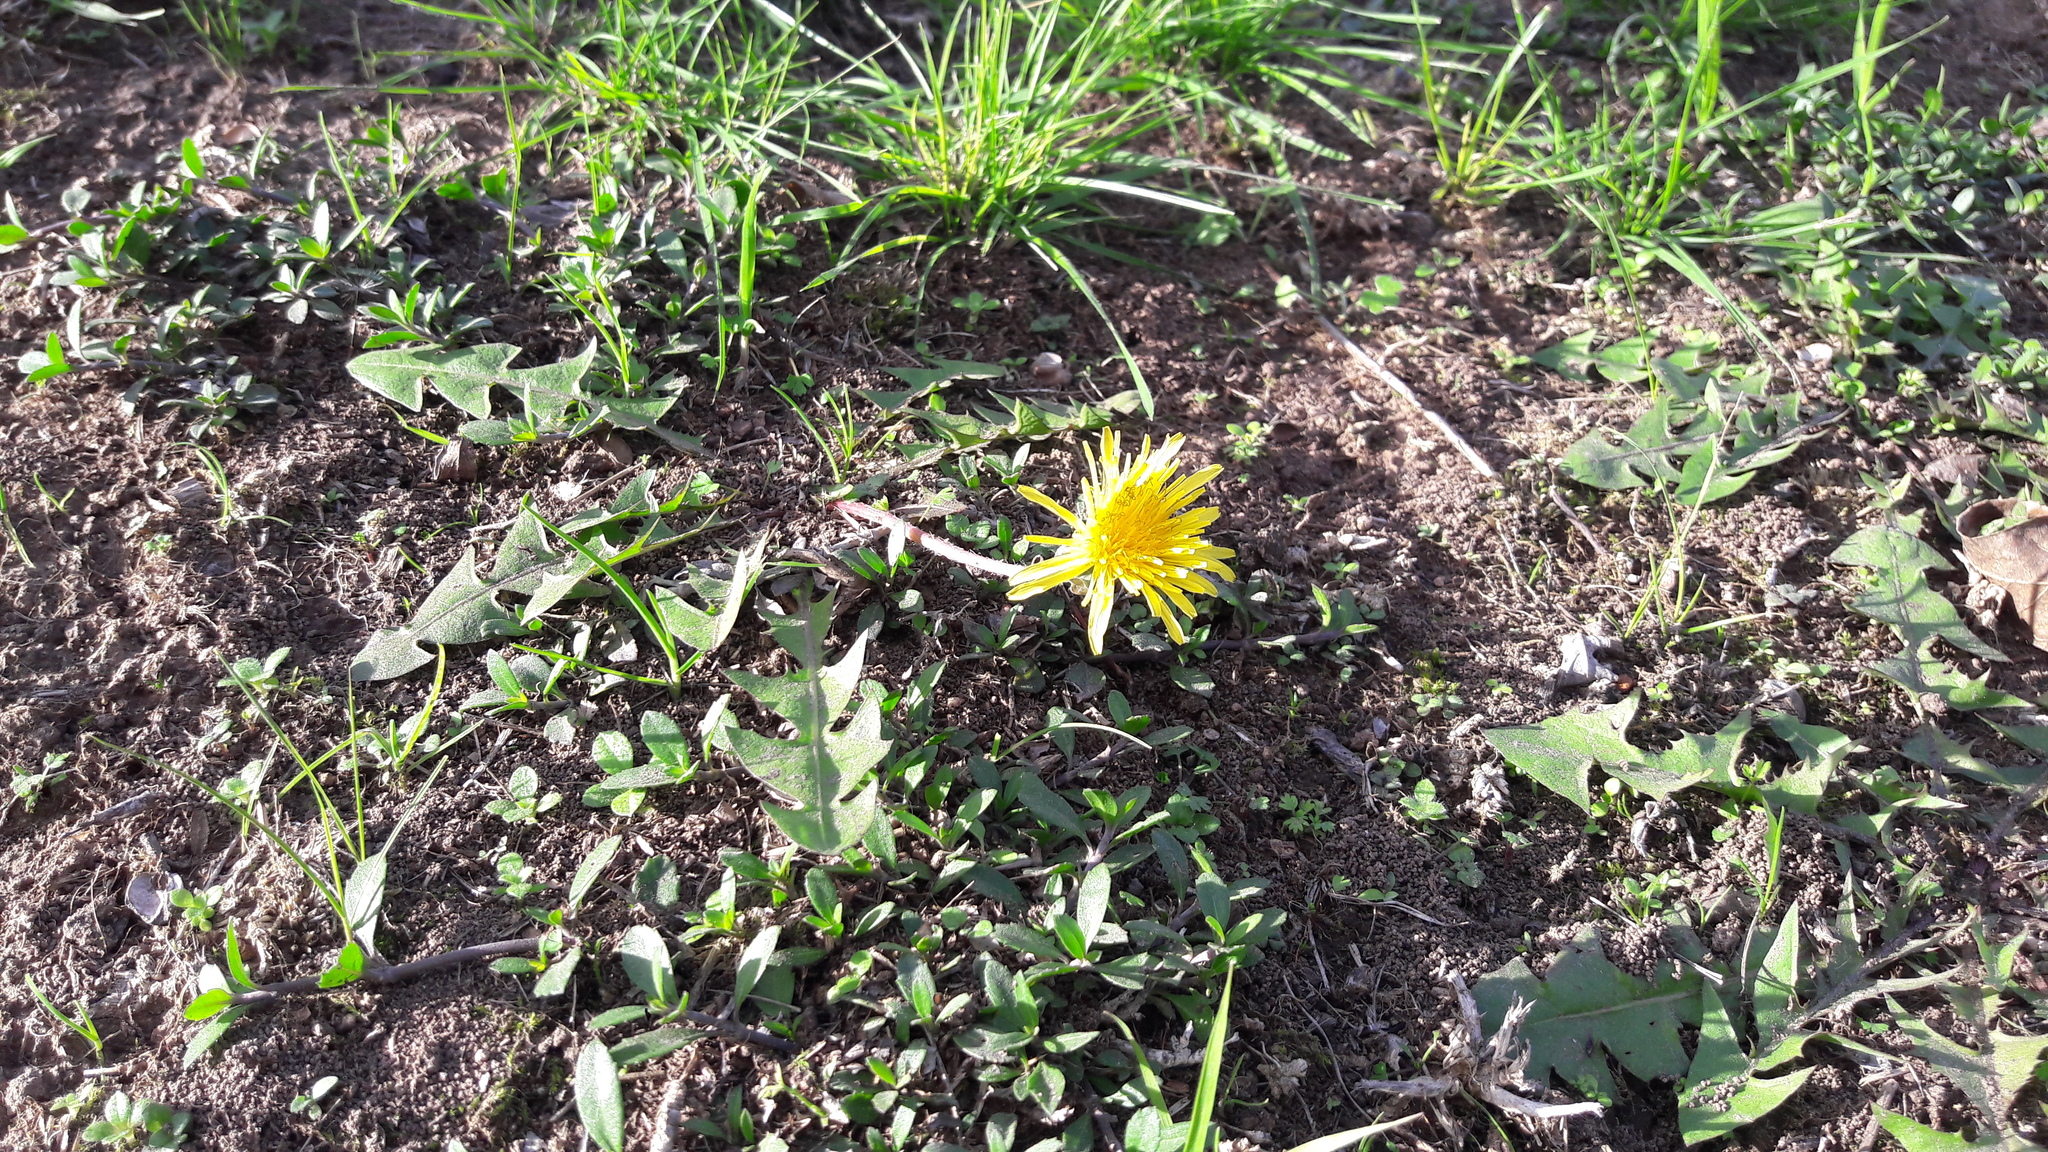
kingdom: Plantae
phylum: Tracheophyta
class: Magnoliopsida
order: Asterales
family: Asteraceae
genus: Taraxacum
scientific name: Taraxacum officinale
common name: Common dandelion
